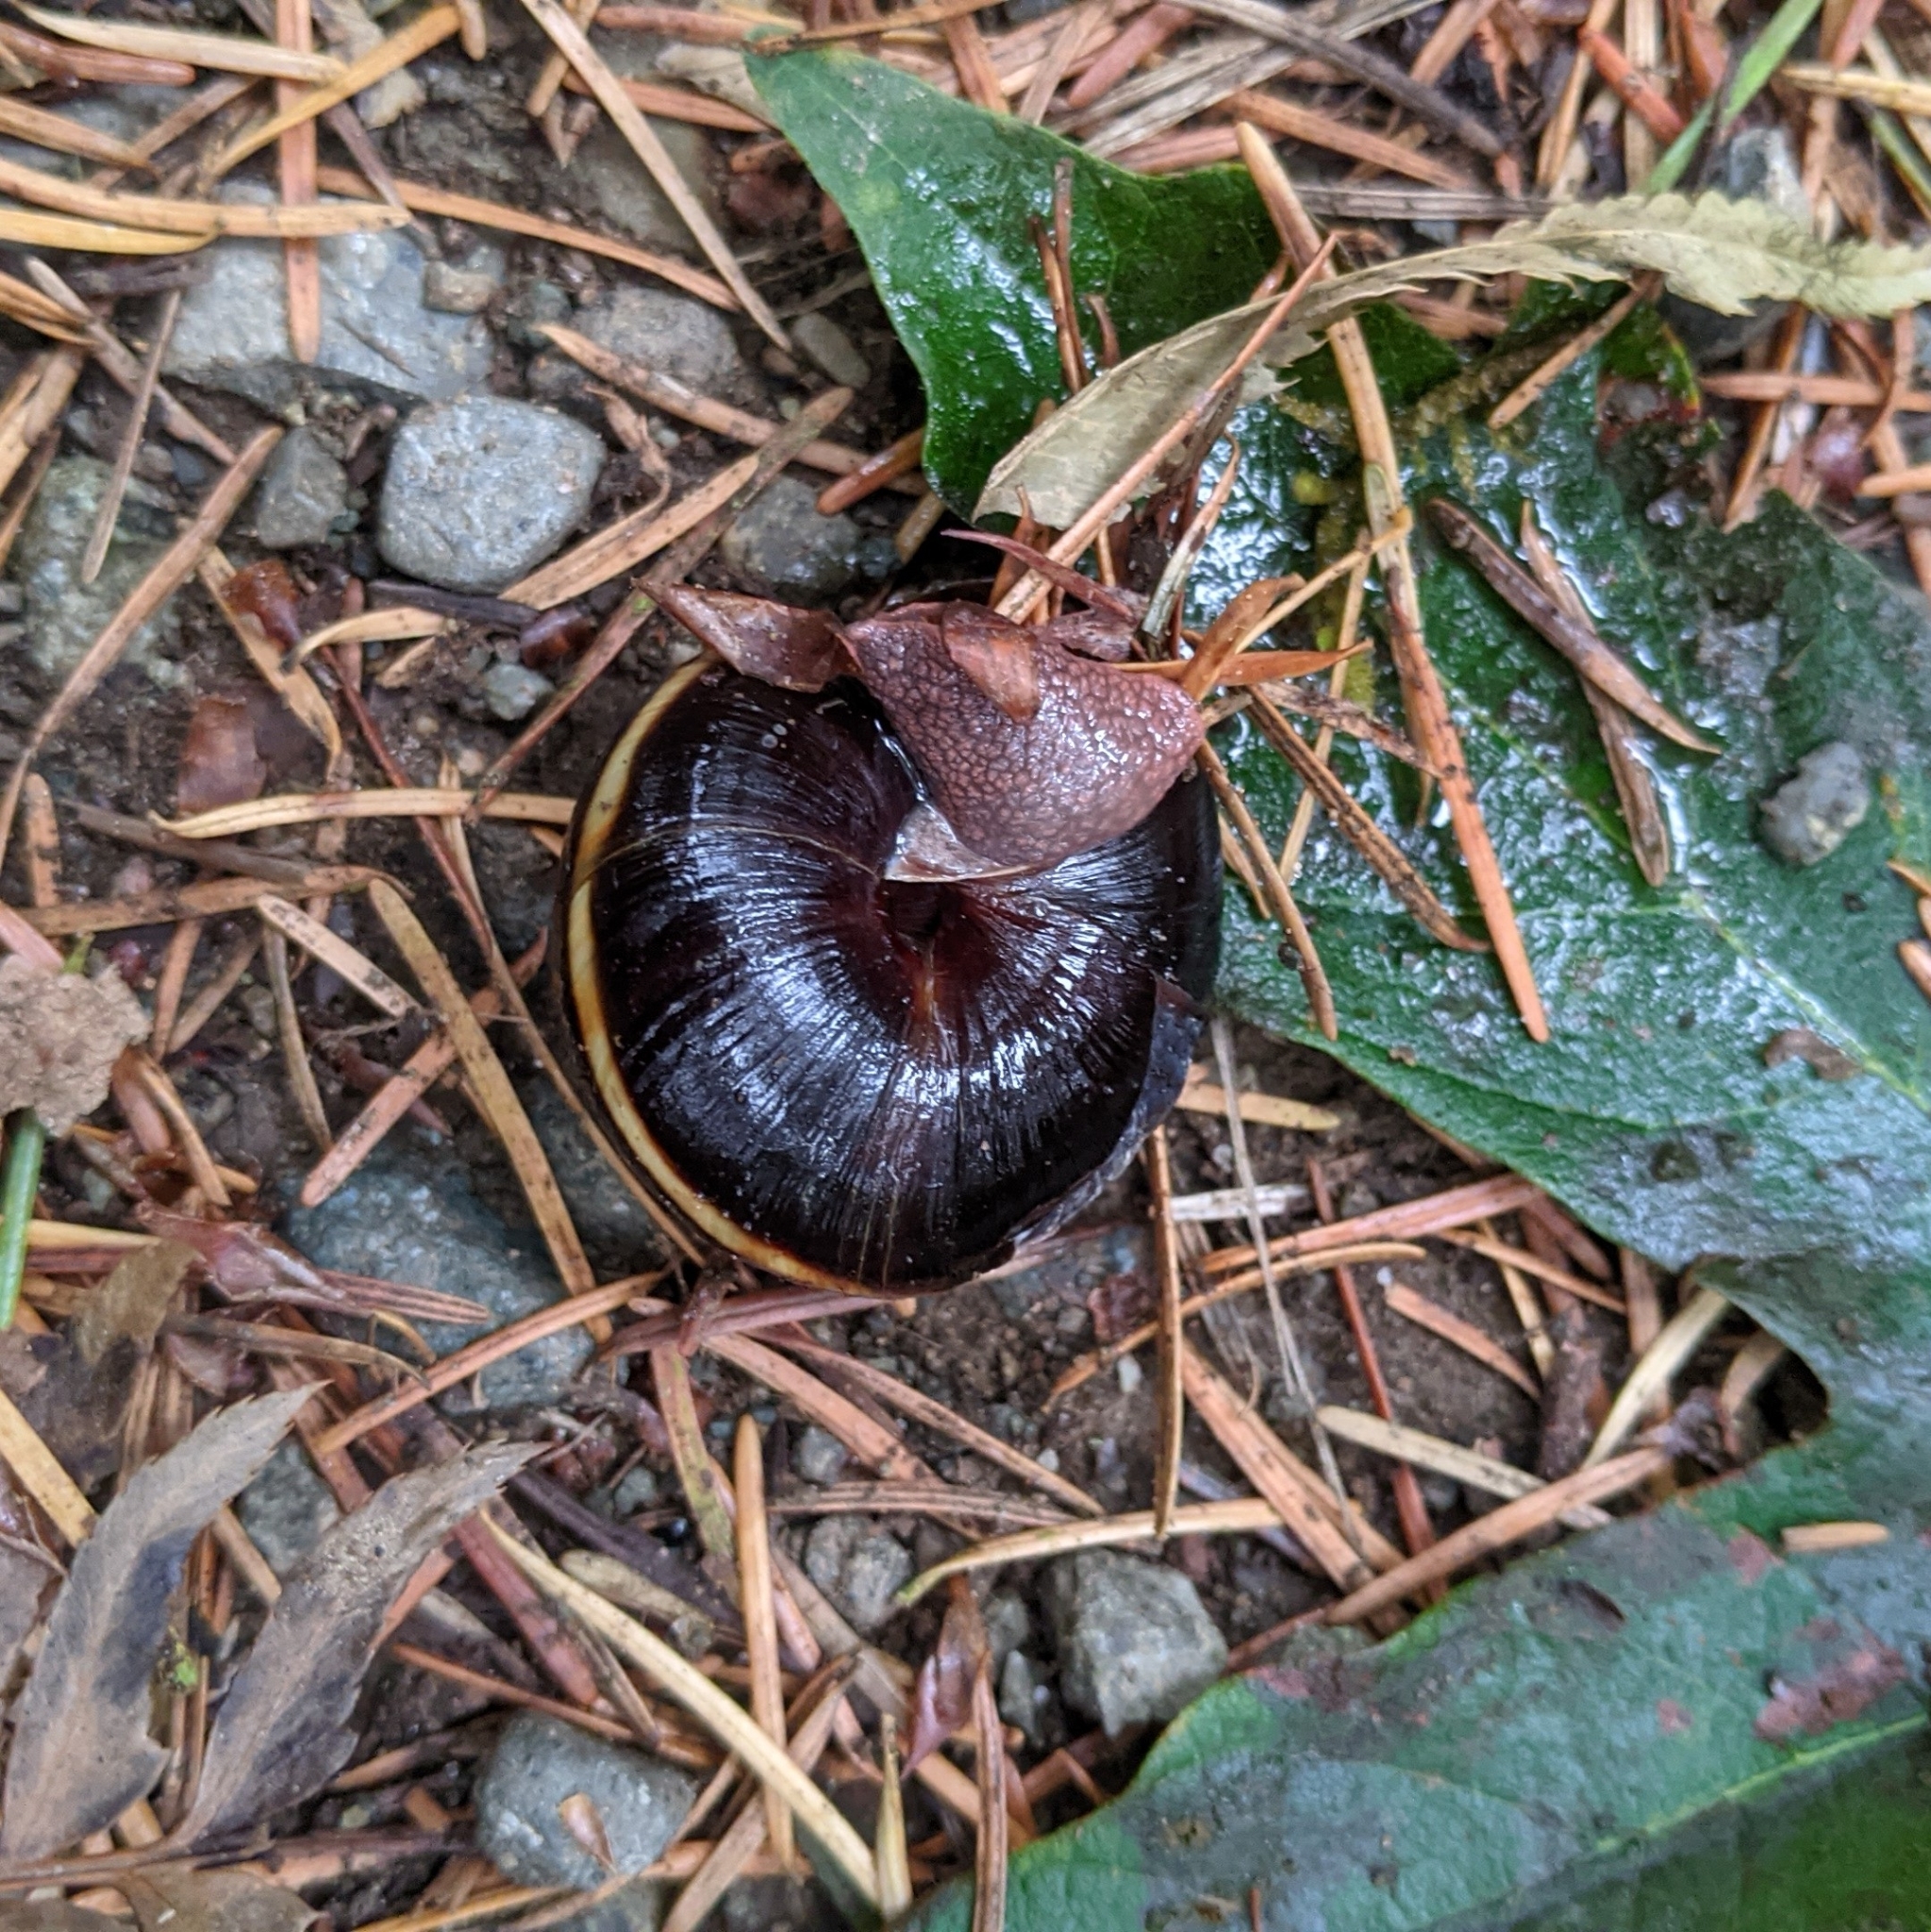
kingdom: Animalia
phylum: Mollusca
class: Gastropoda
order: Stylommatophora
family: Xanthonychidae
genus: Monadenia
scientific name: Monadenia fidelis
